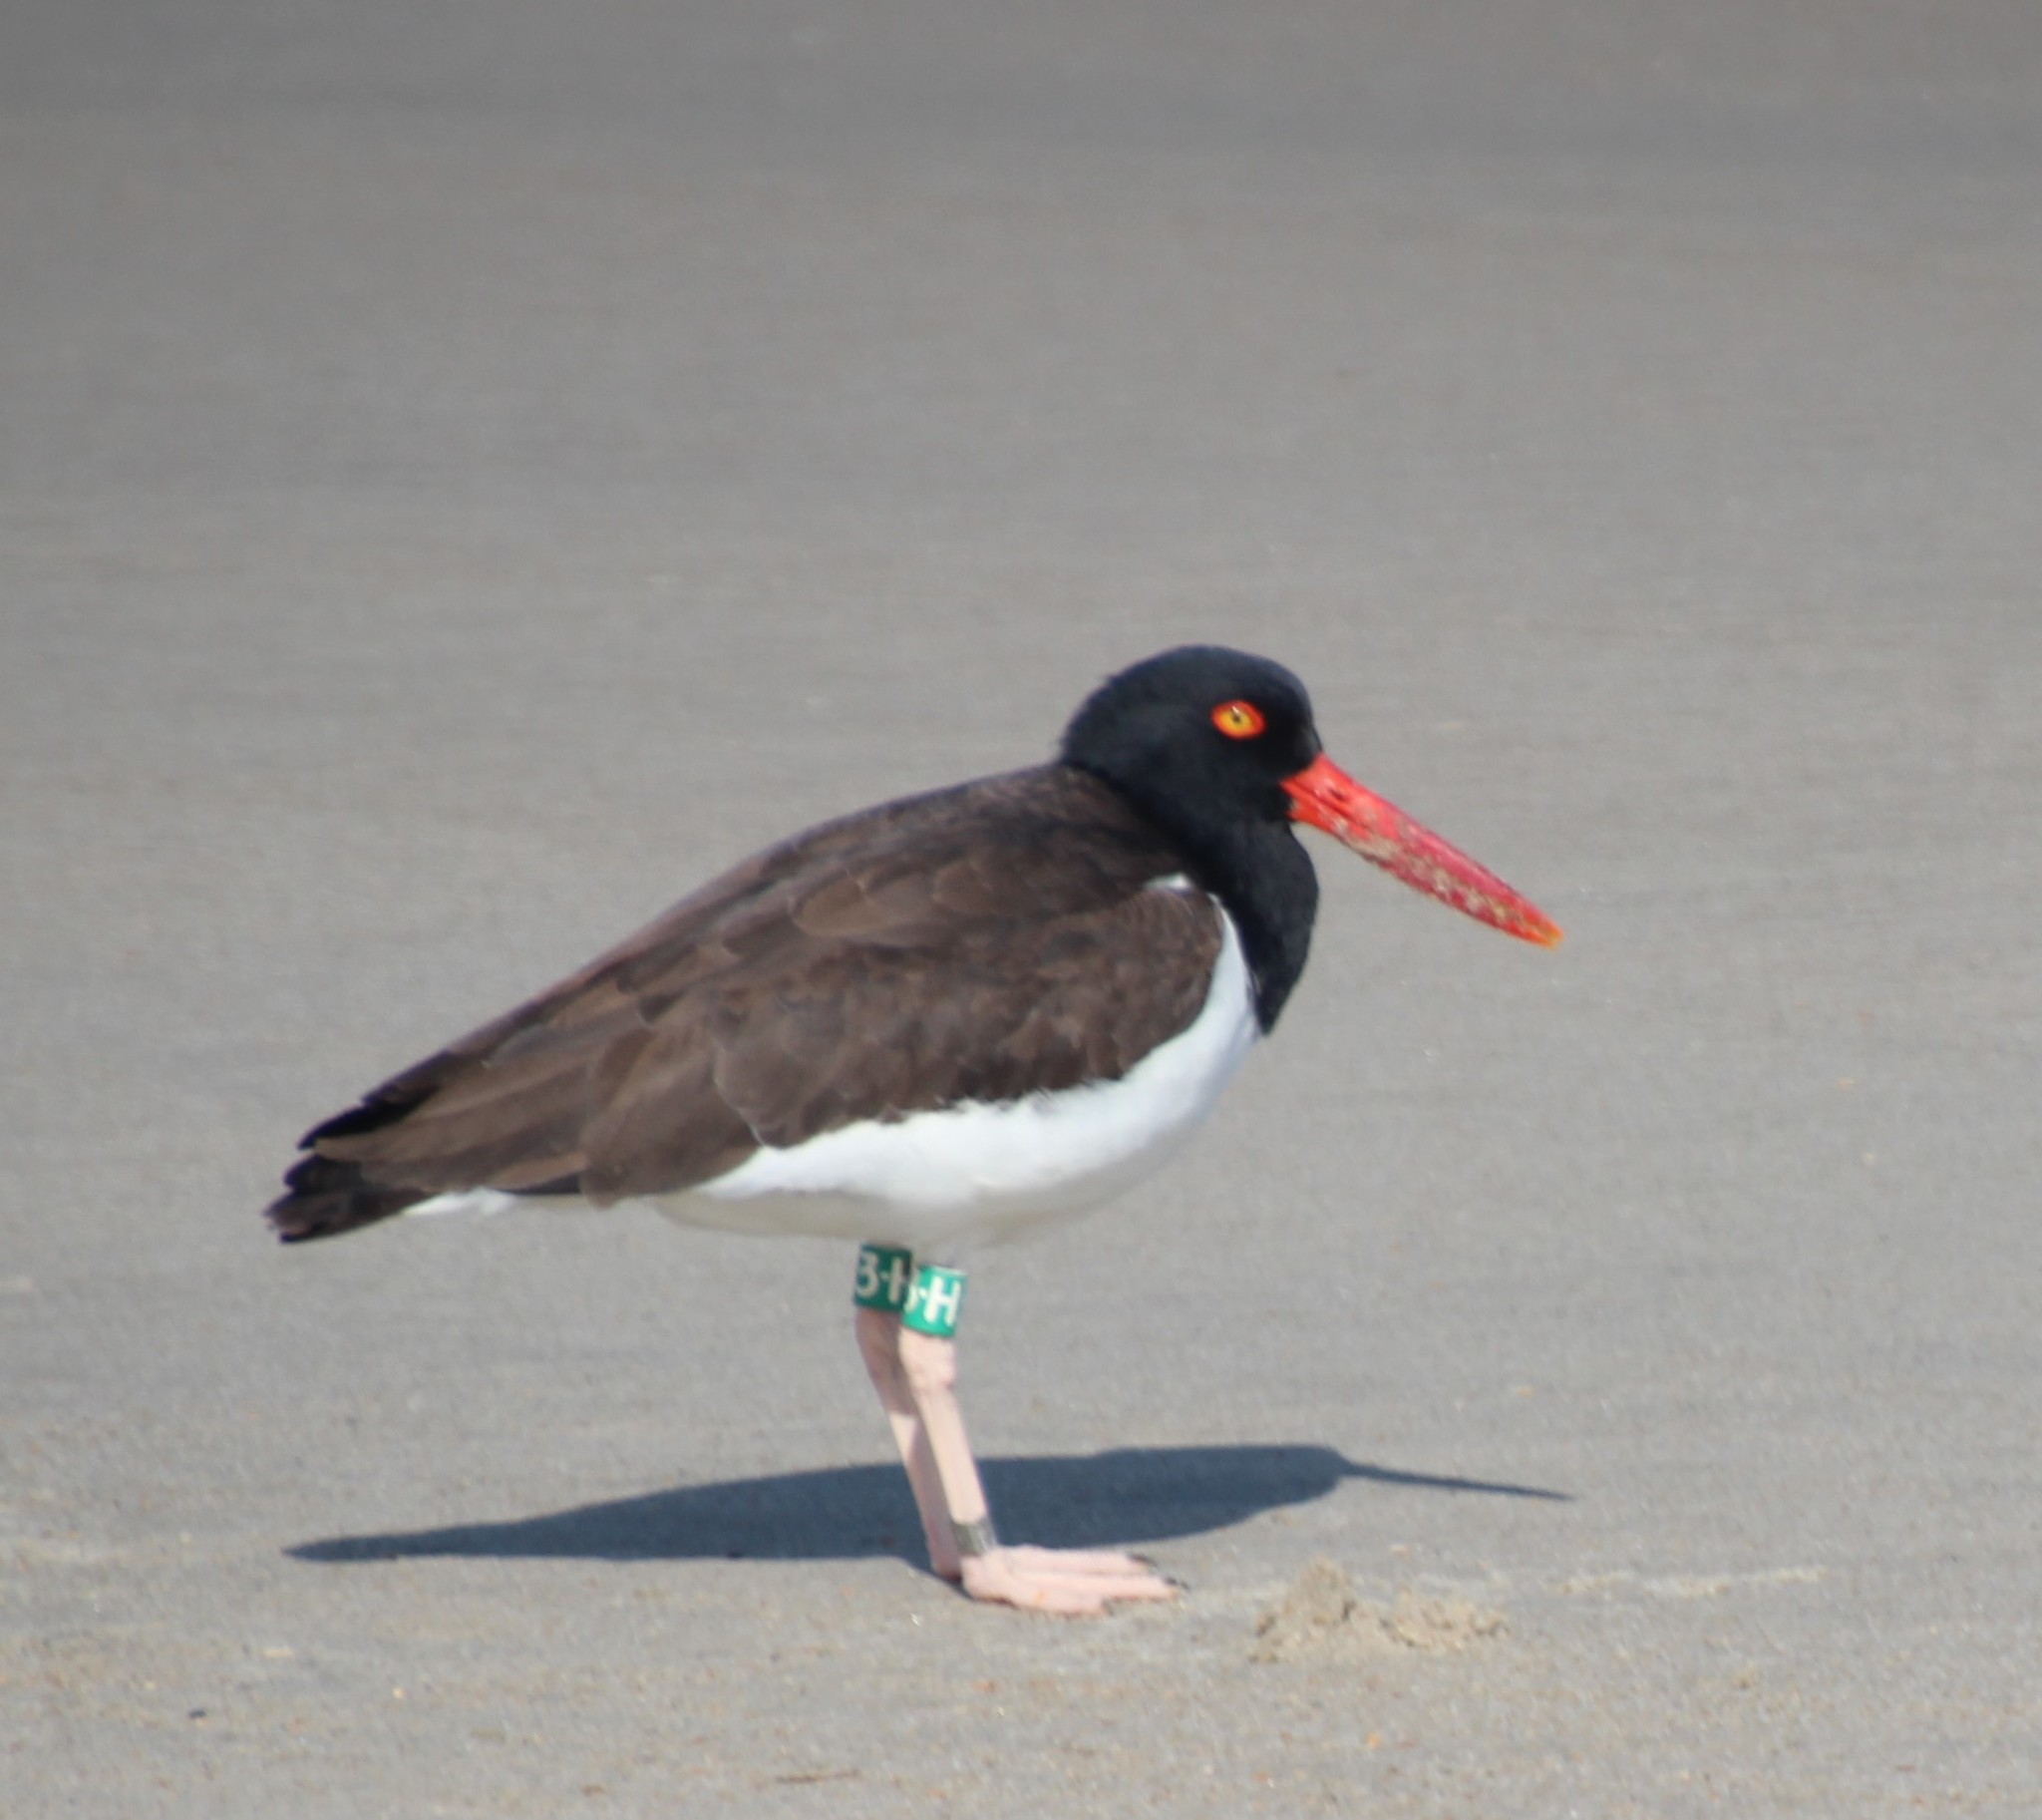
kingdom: Animalia
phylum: Chordata
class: Aves
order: Charadriiformes
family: Haematopodidae
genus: Haematopus
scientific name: Haematopus palliatus
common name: American oystercatcher
